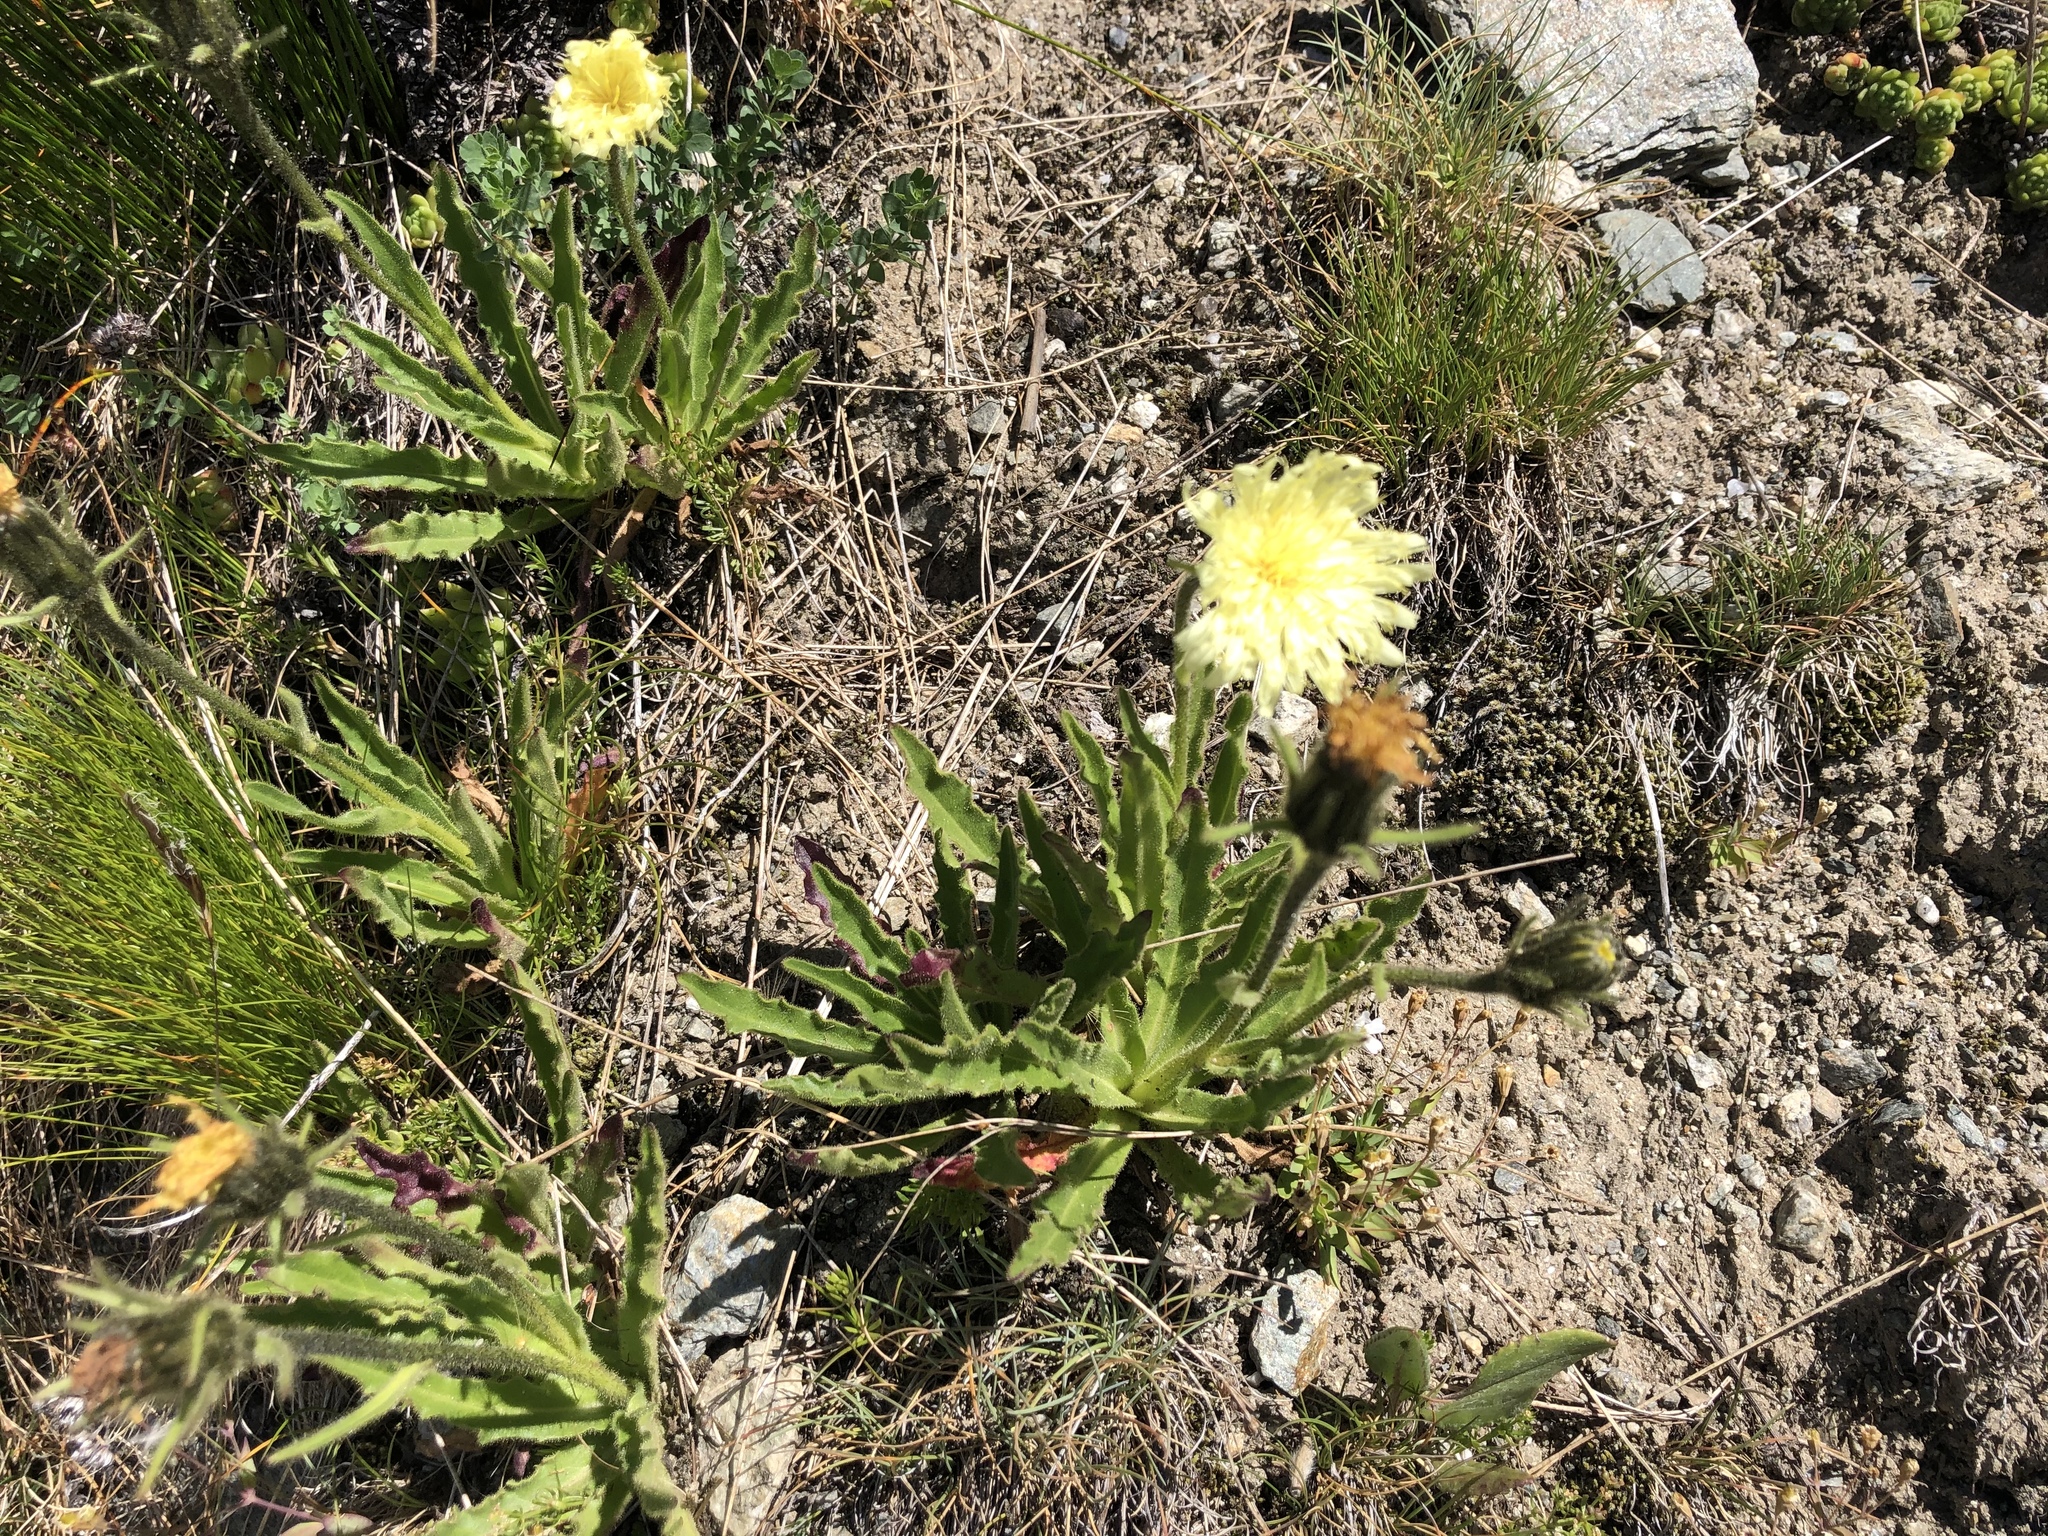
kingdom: Plantae
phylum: Tracheophyta
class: Magnoliopsida
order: Asterales
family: Asteraceae
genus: Schlagintweitia
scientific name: Schlagintweitia intybacea
